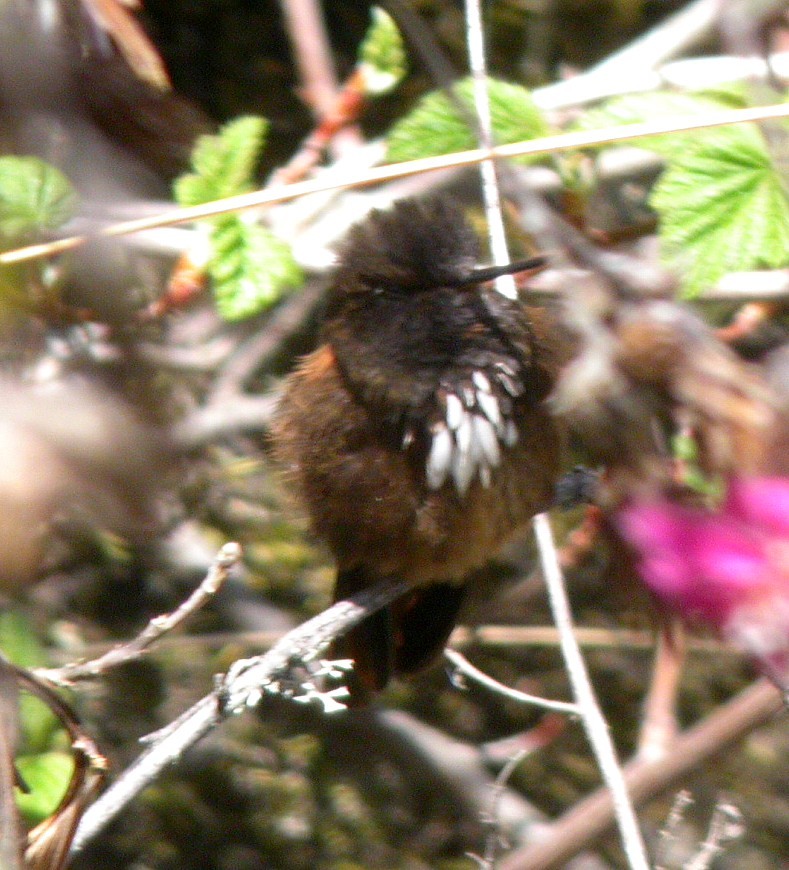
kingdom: Animalia
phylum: Chordata
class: Aves
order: Apodiformes
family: Trochilidae
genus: Aglaeactis
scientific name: Aglaeactis castelnaudii
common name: White-tufted sunbeam
